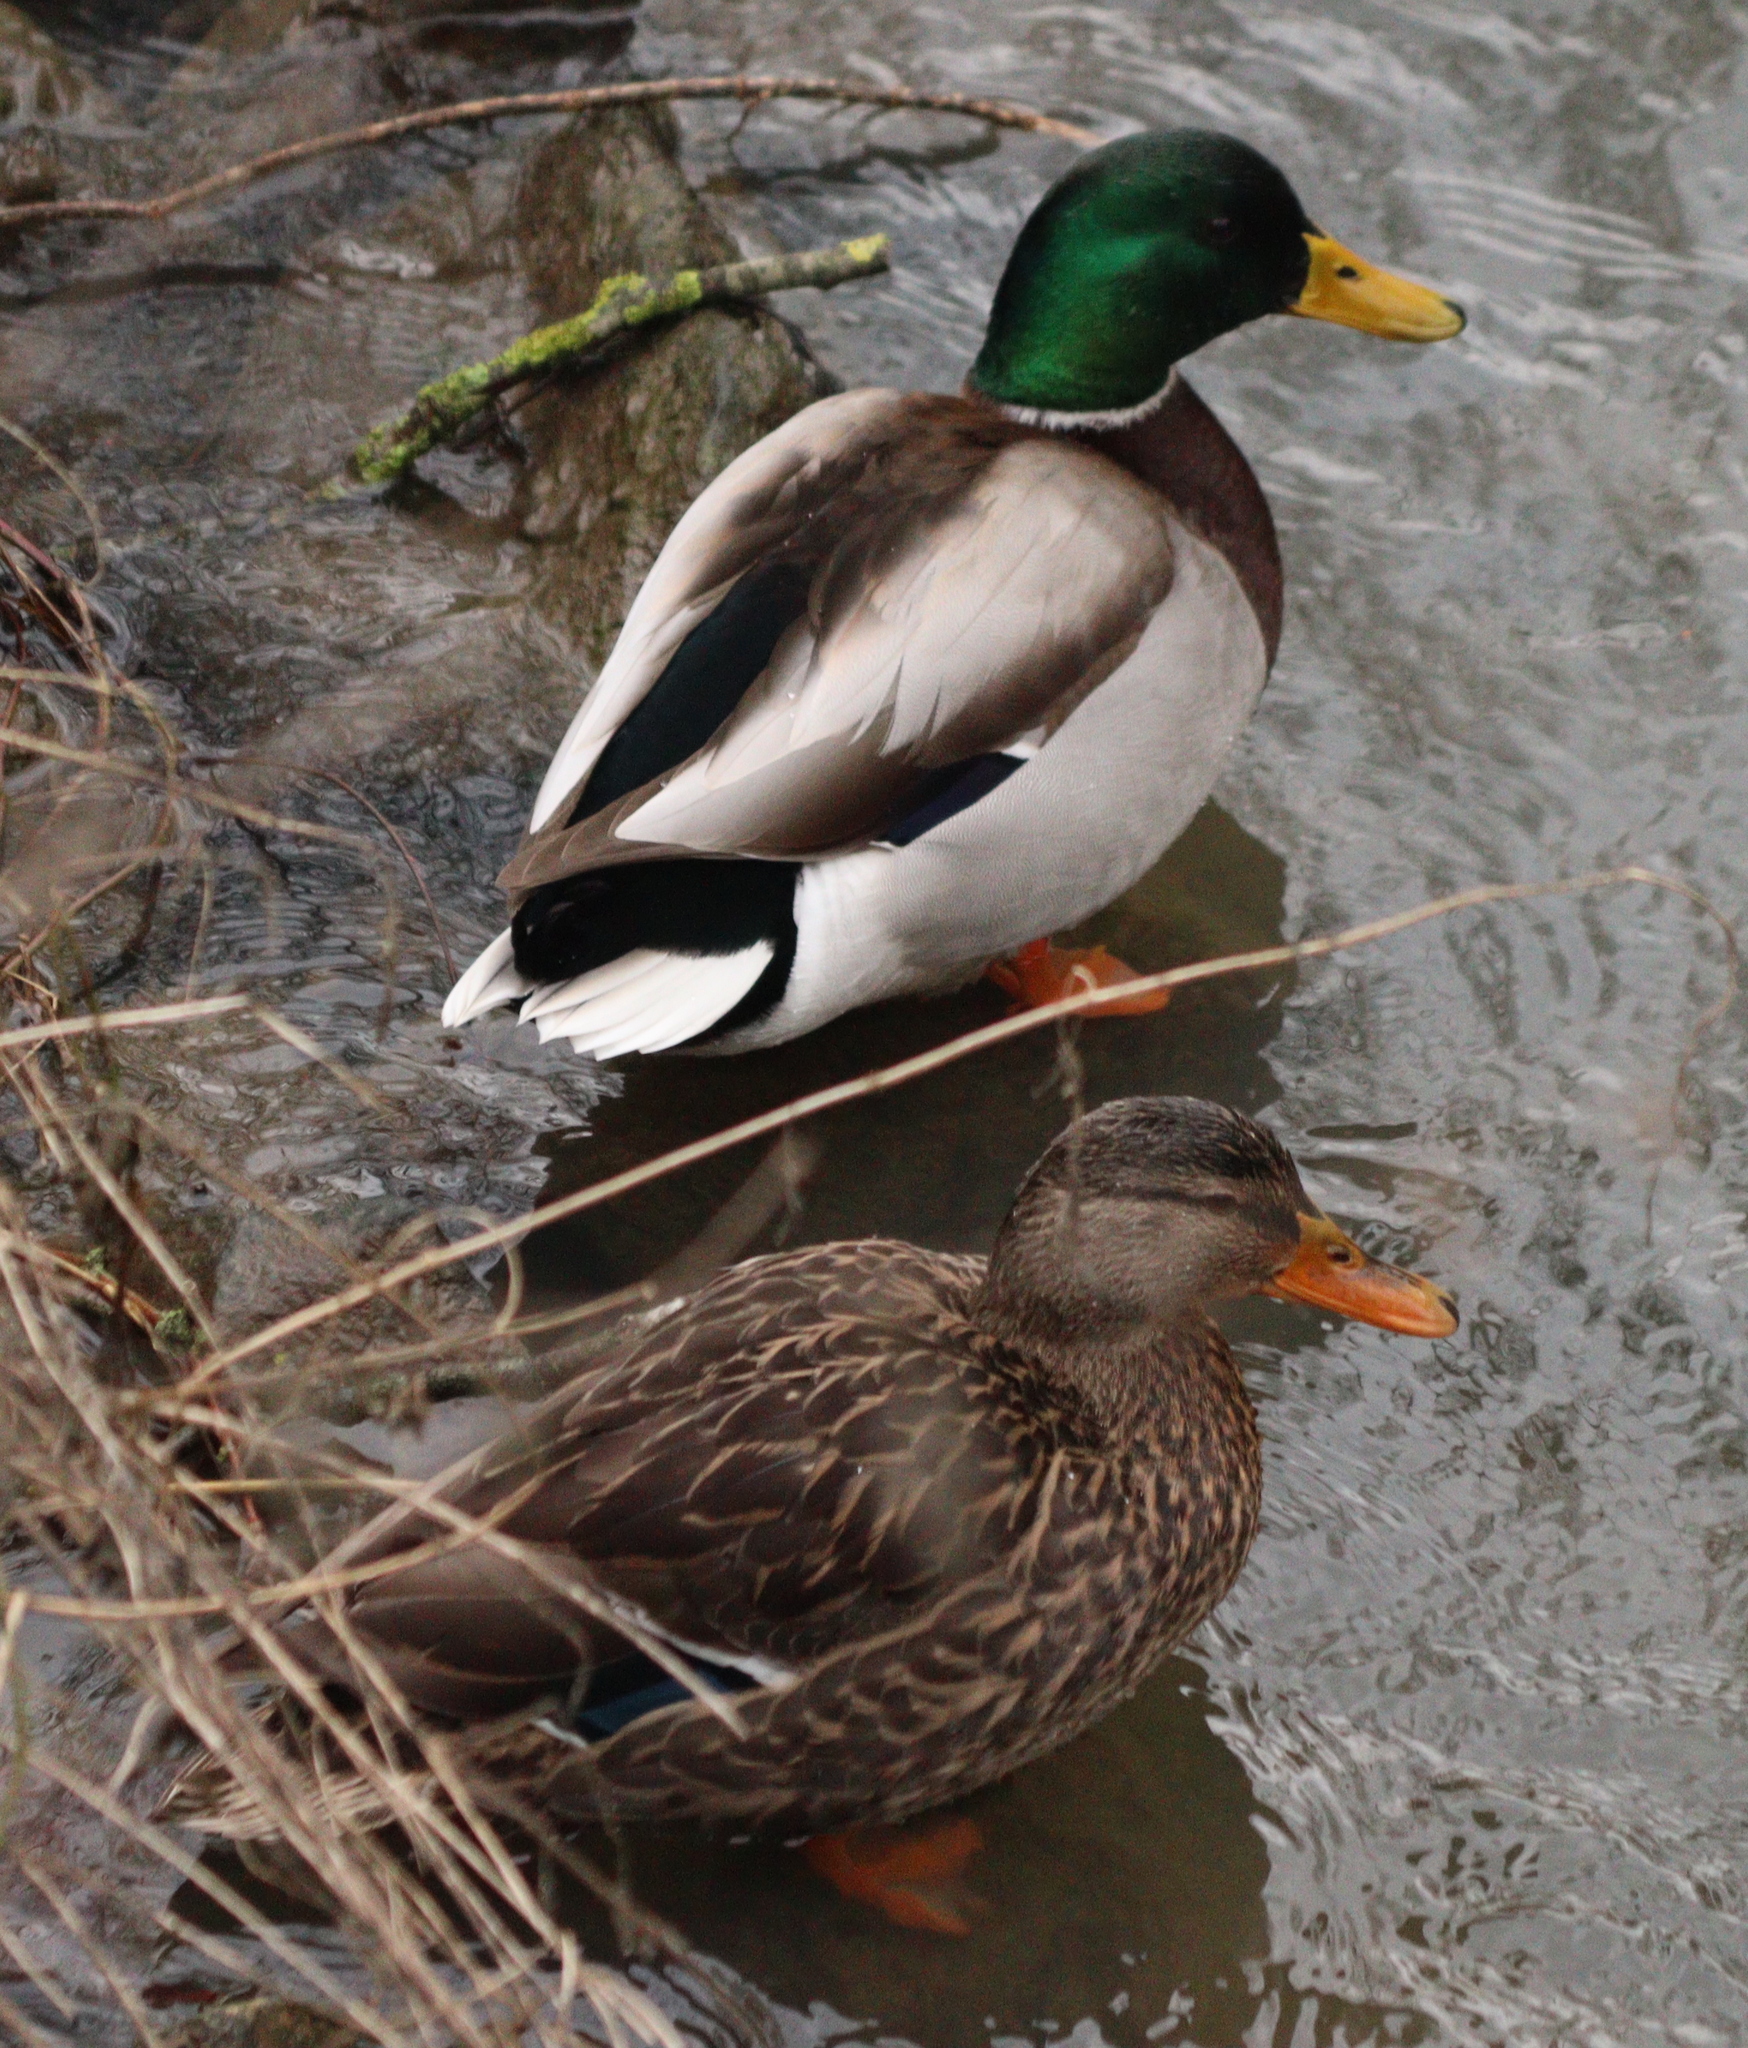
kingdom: Animalia
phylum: Chordata
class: Aves
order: Anseriformes
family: Anatidae
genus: Anas
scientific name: Anas platyrhynchos
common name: Mallard
